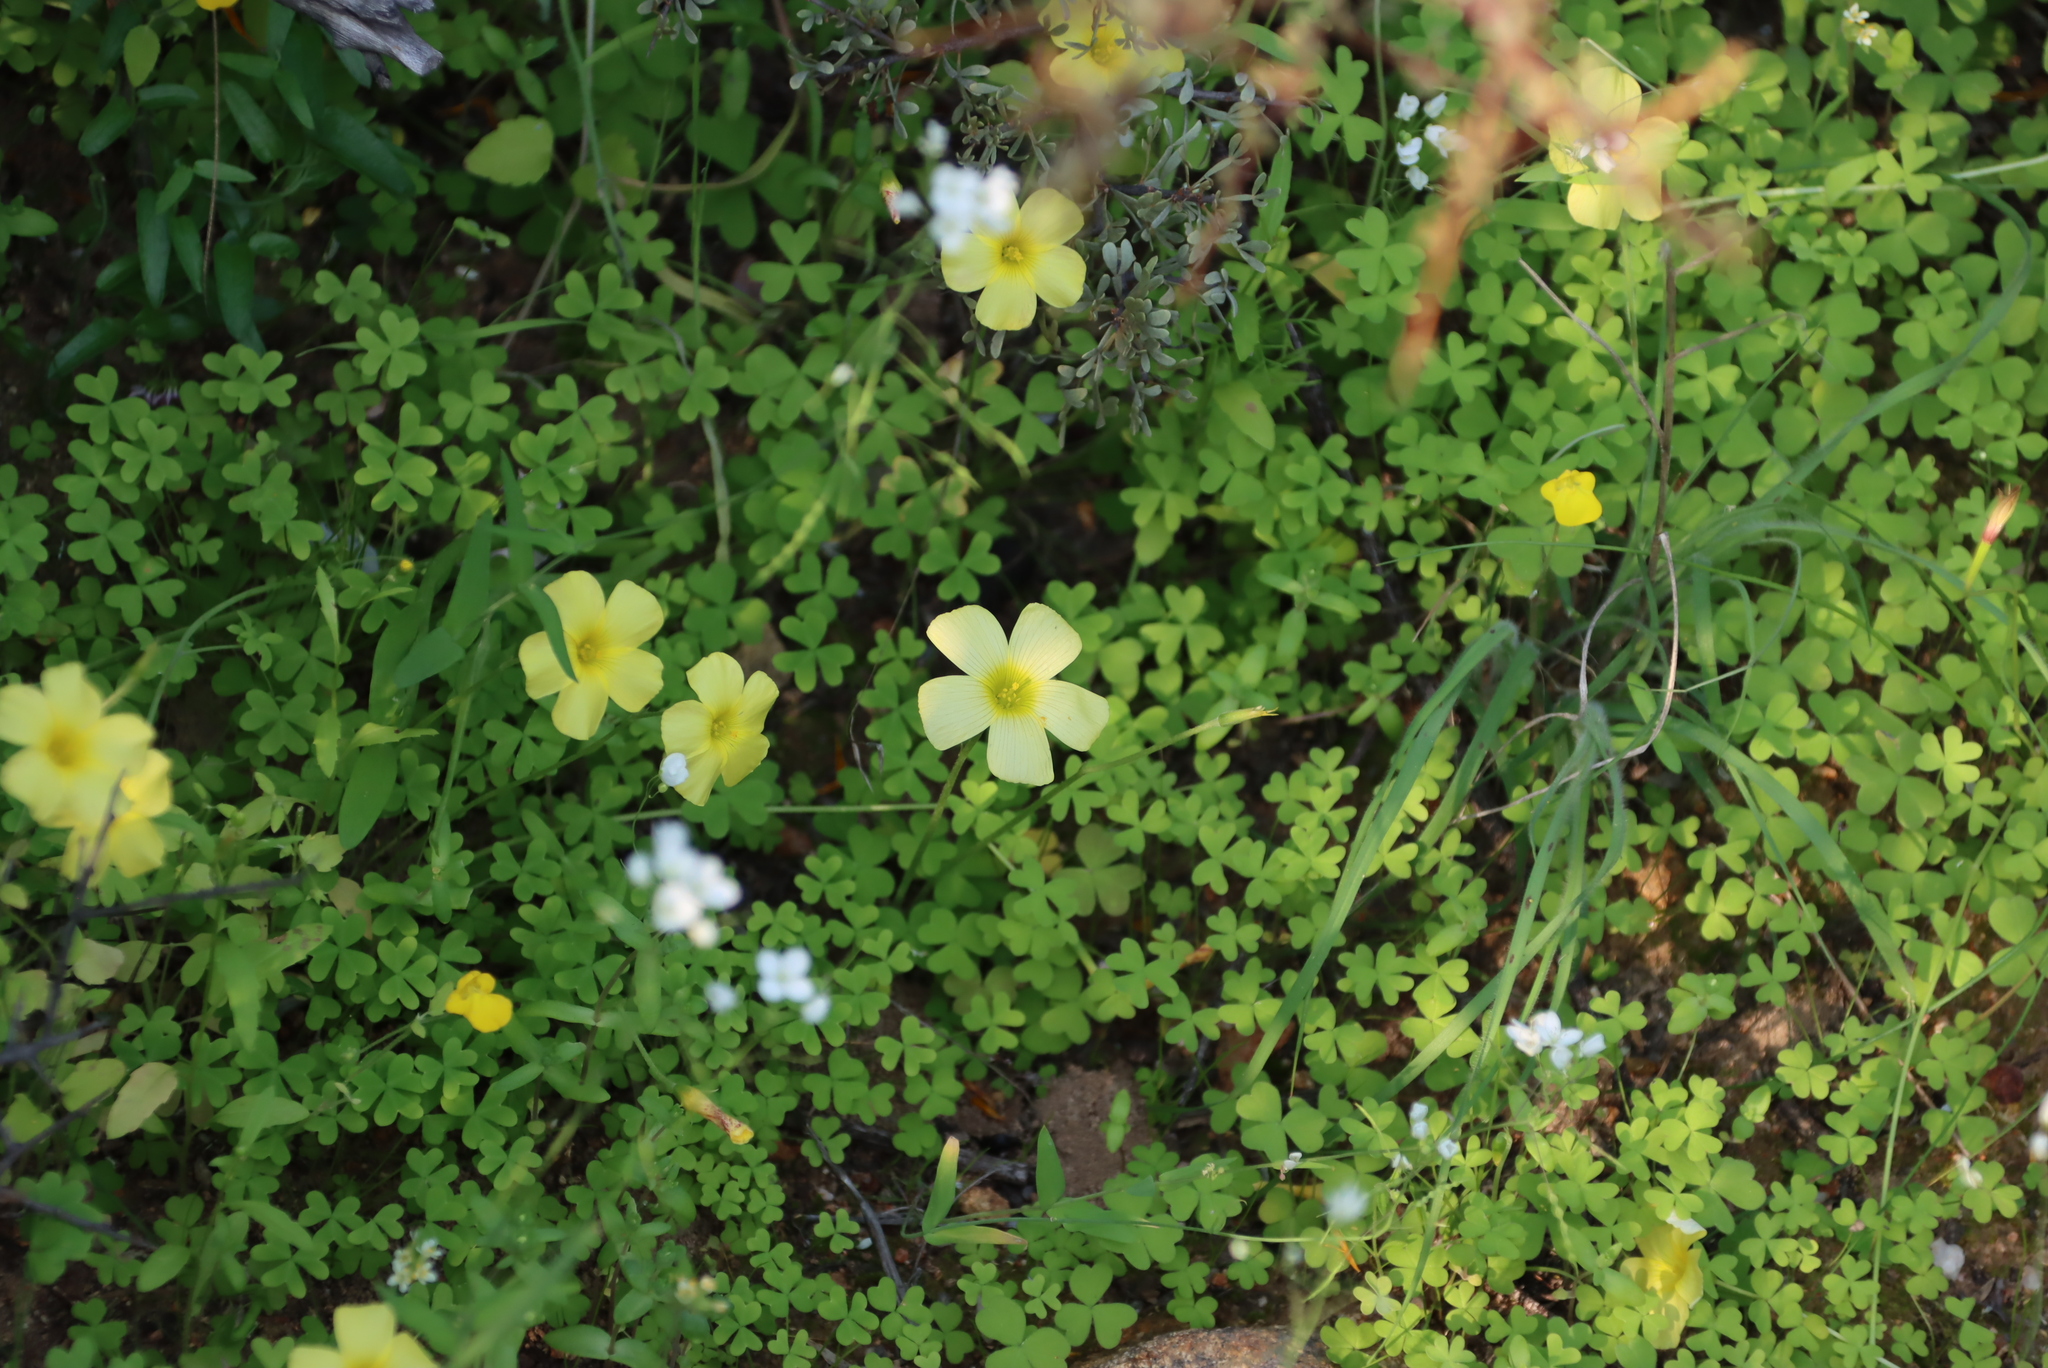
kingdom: Plantae
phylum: Tracheophyta
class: Magnoliopsida
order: Oxalidales
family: Oxalidaceae
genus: Oxalis
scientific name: Oxalis obtusa
